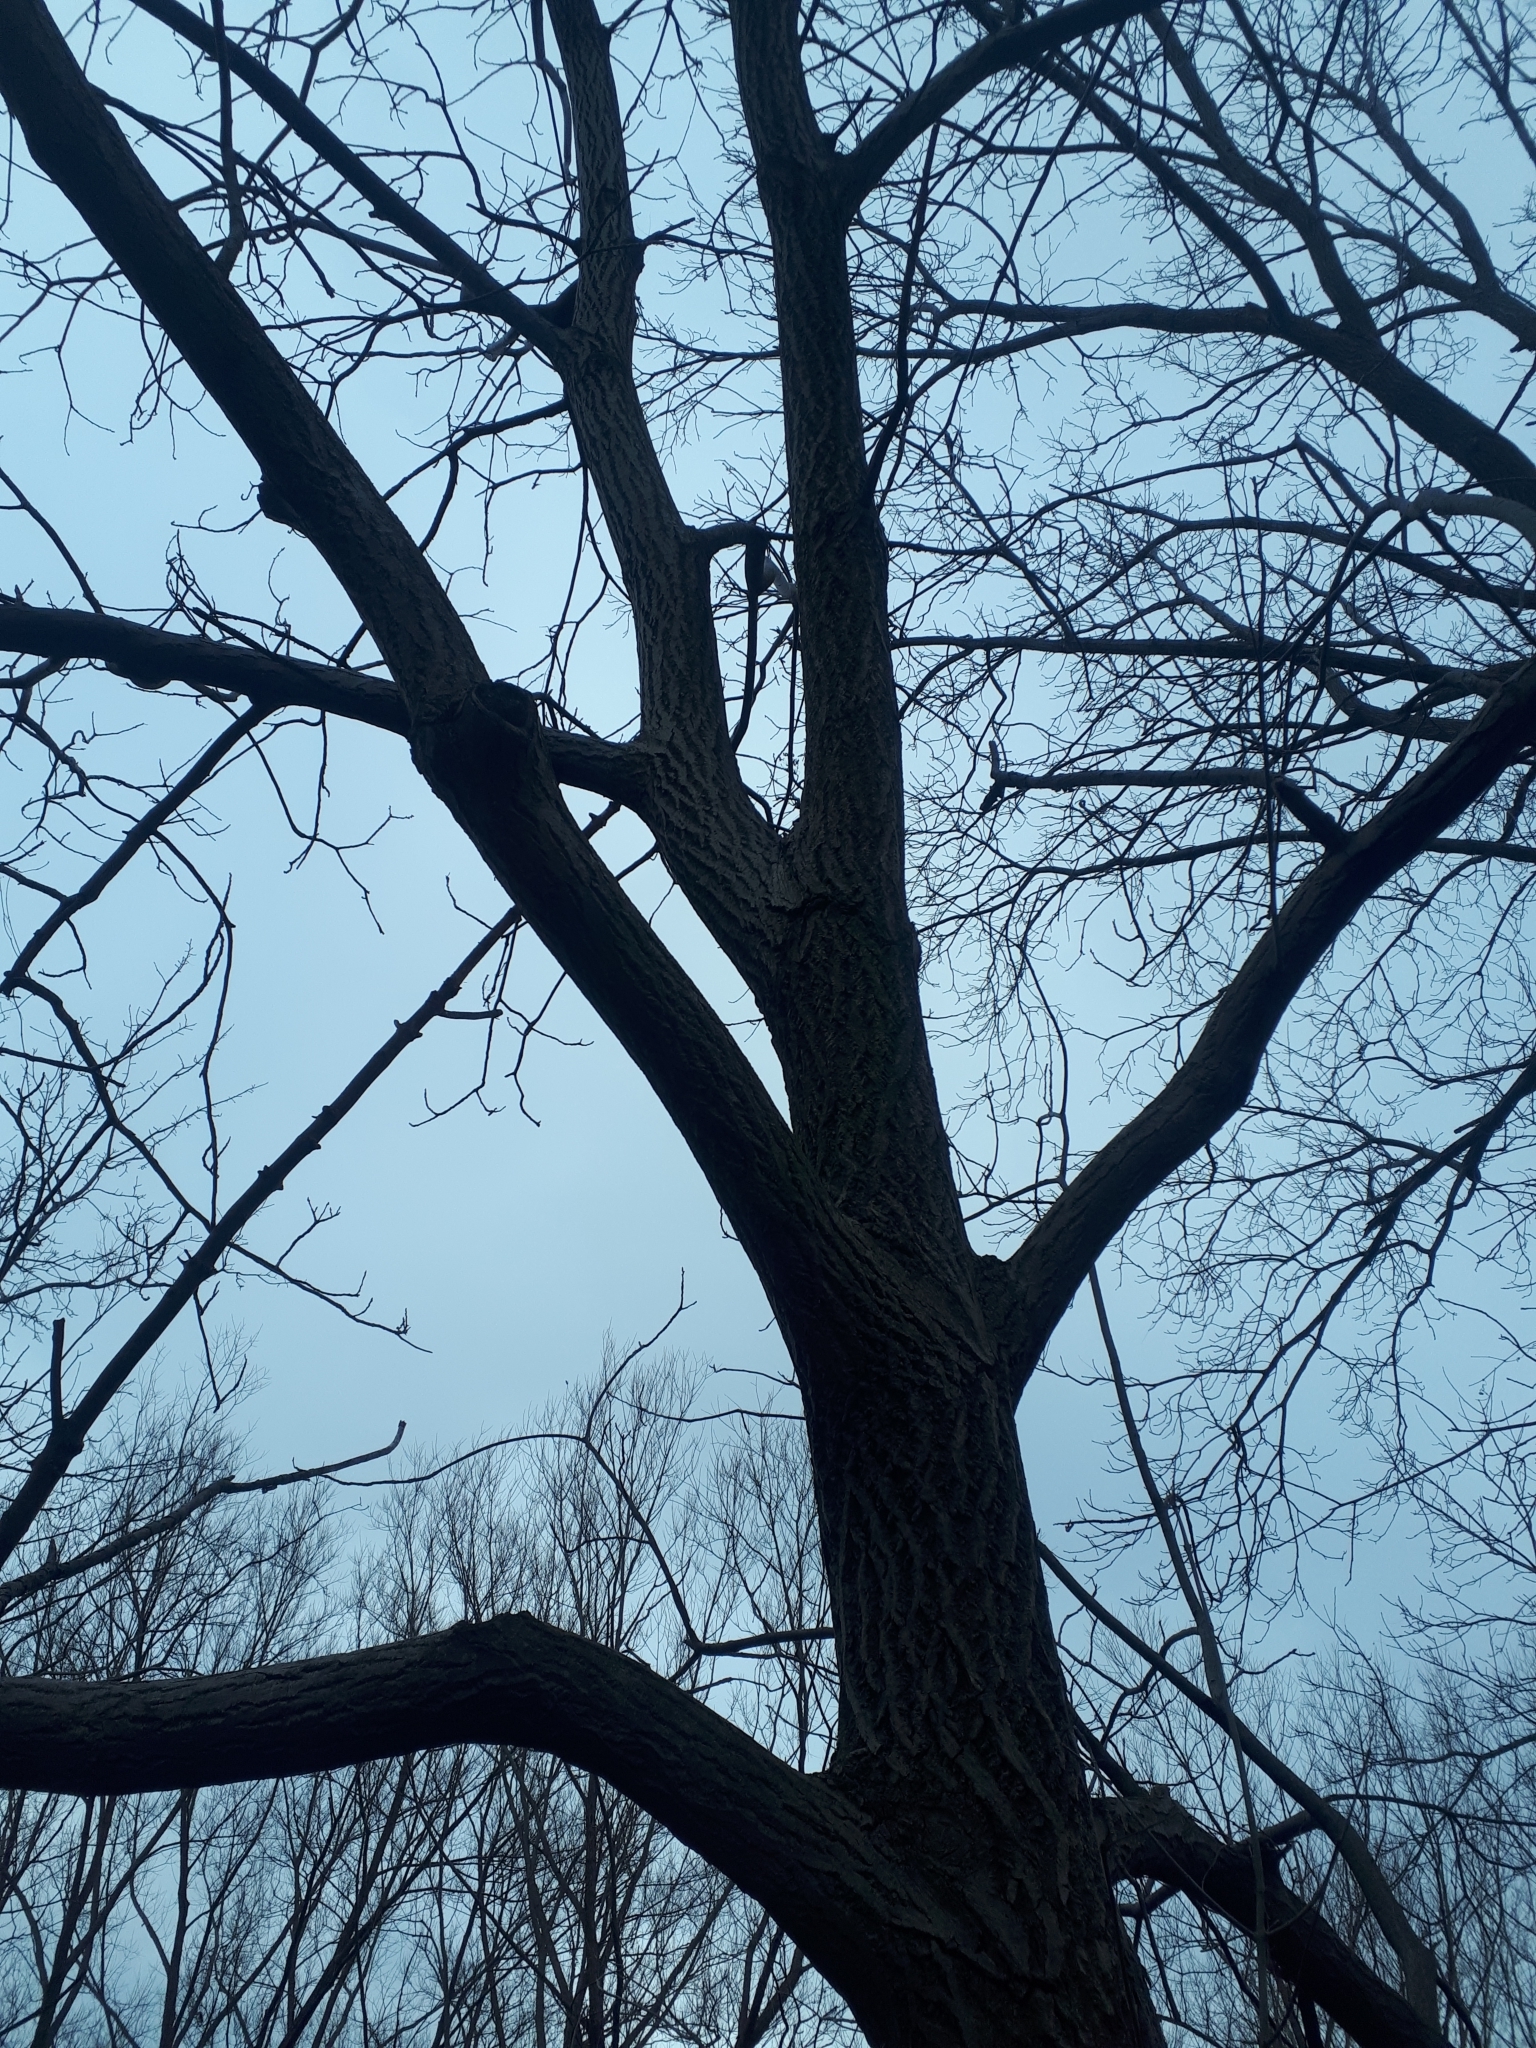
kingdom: Plantae
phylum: Tracheophyta
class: Magnoliopsida
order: Fagales
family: Juglandaceae
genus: Juglans
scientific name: Juglans cinerea
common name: Butternut
